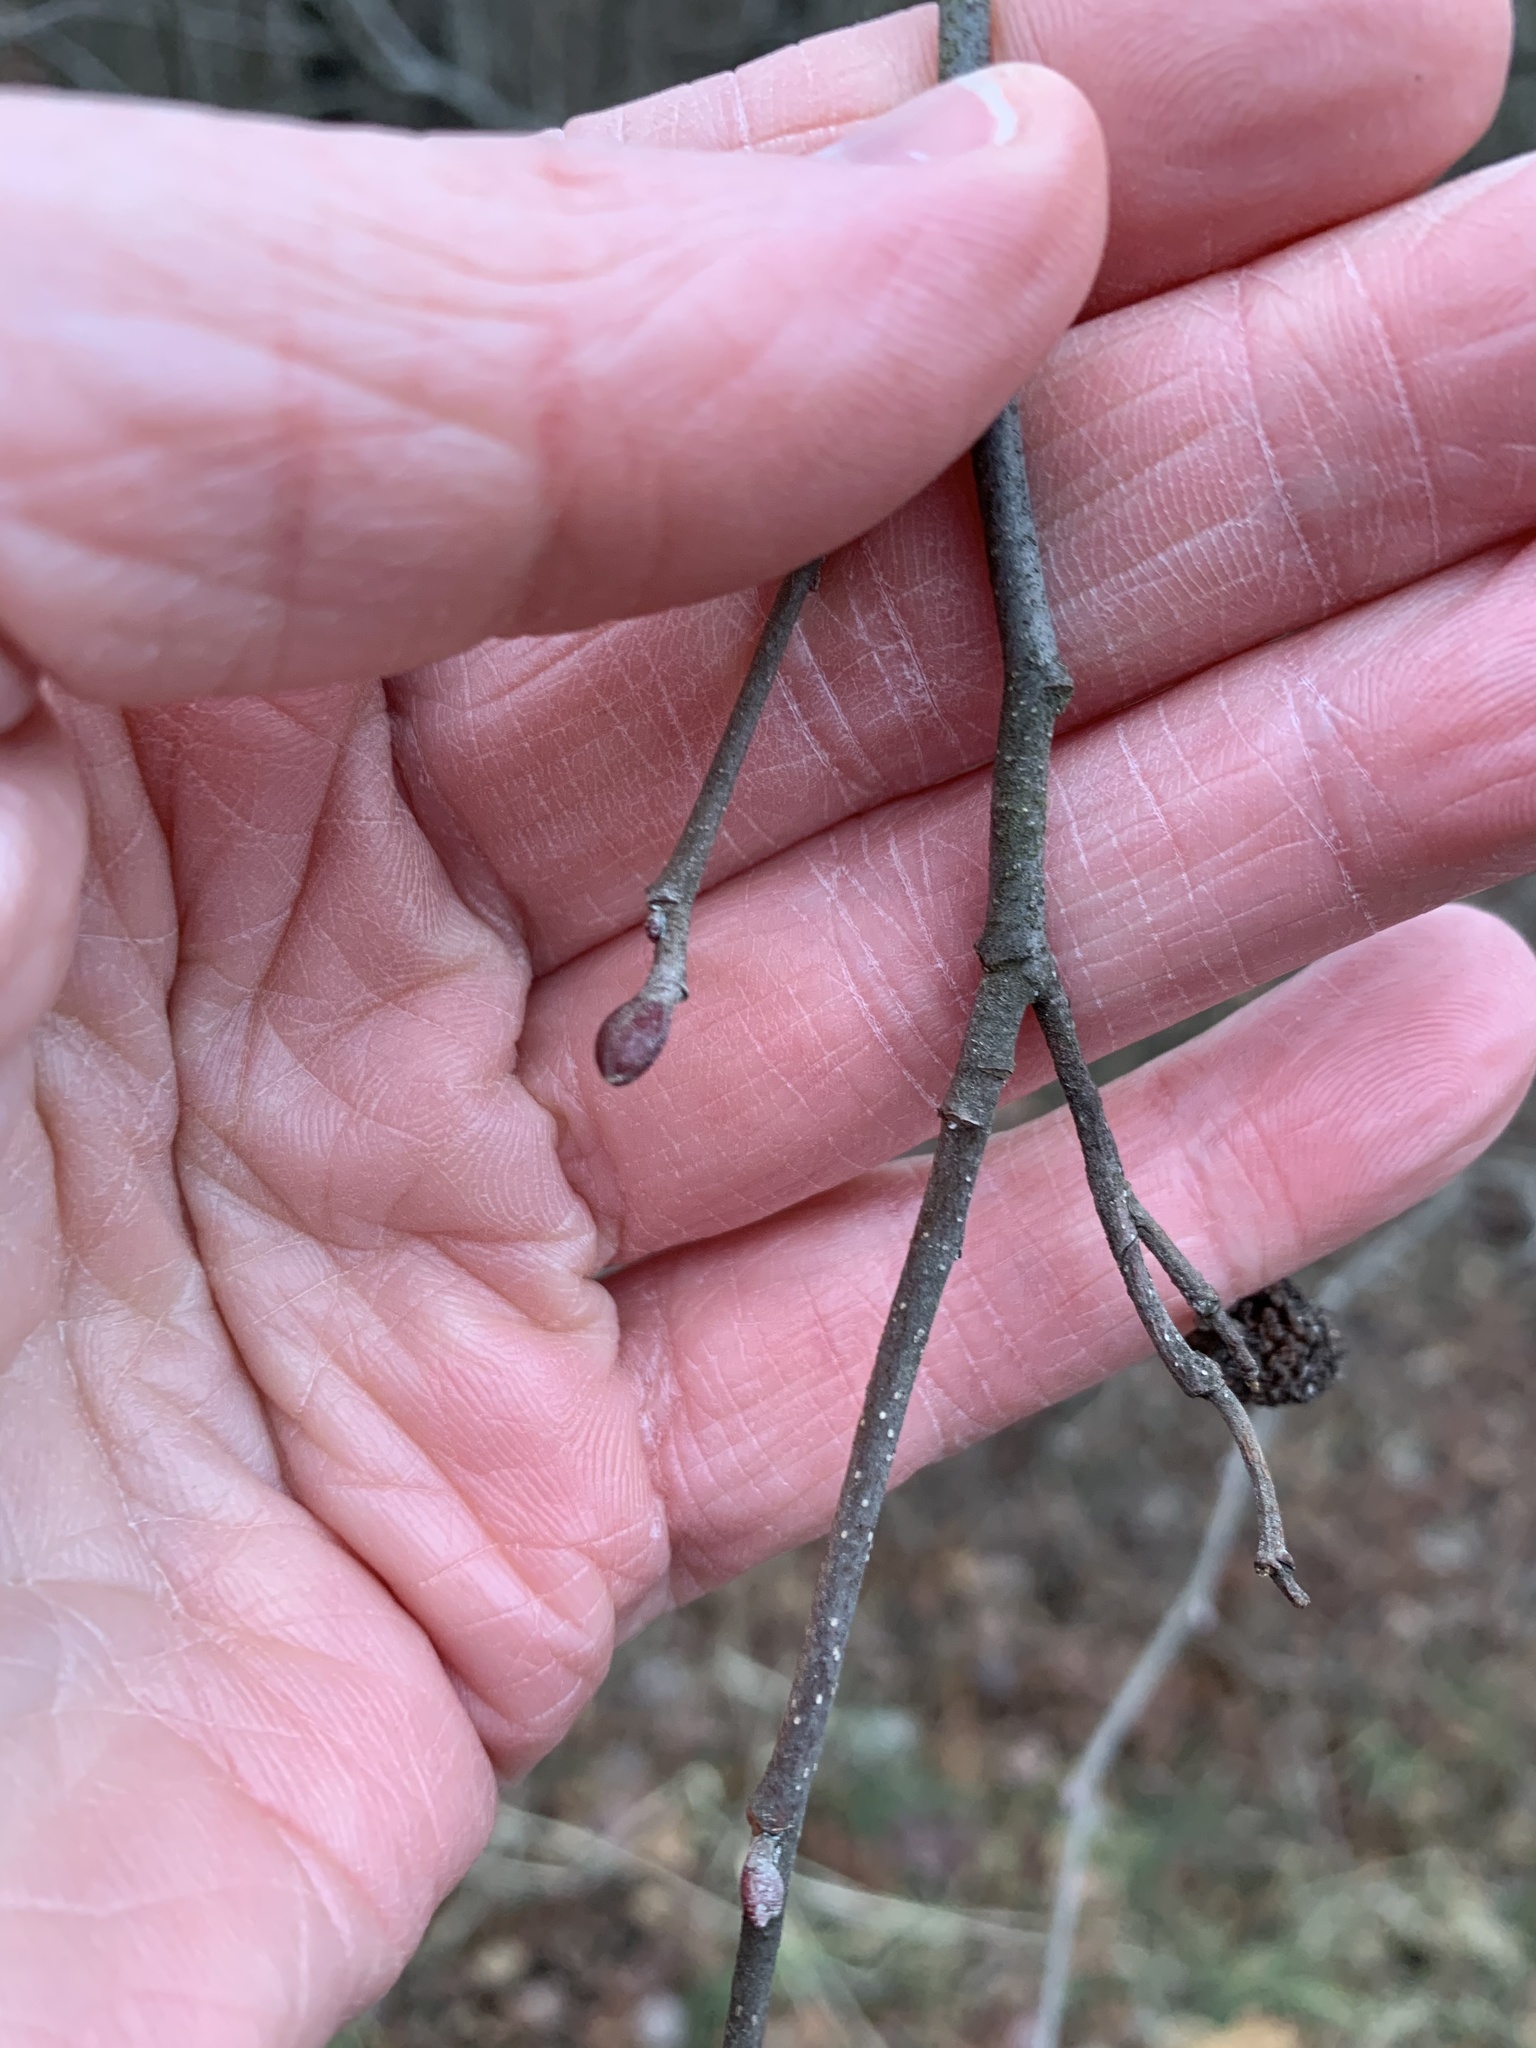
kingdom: Plantae
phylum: Tracheophyta
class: Magnoliopsida
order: Fagales
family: Betulaceae
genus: Alnus
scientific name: Alnus serrulata
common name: Hazel alder
